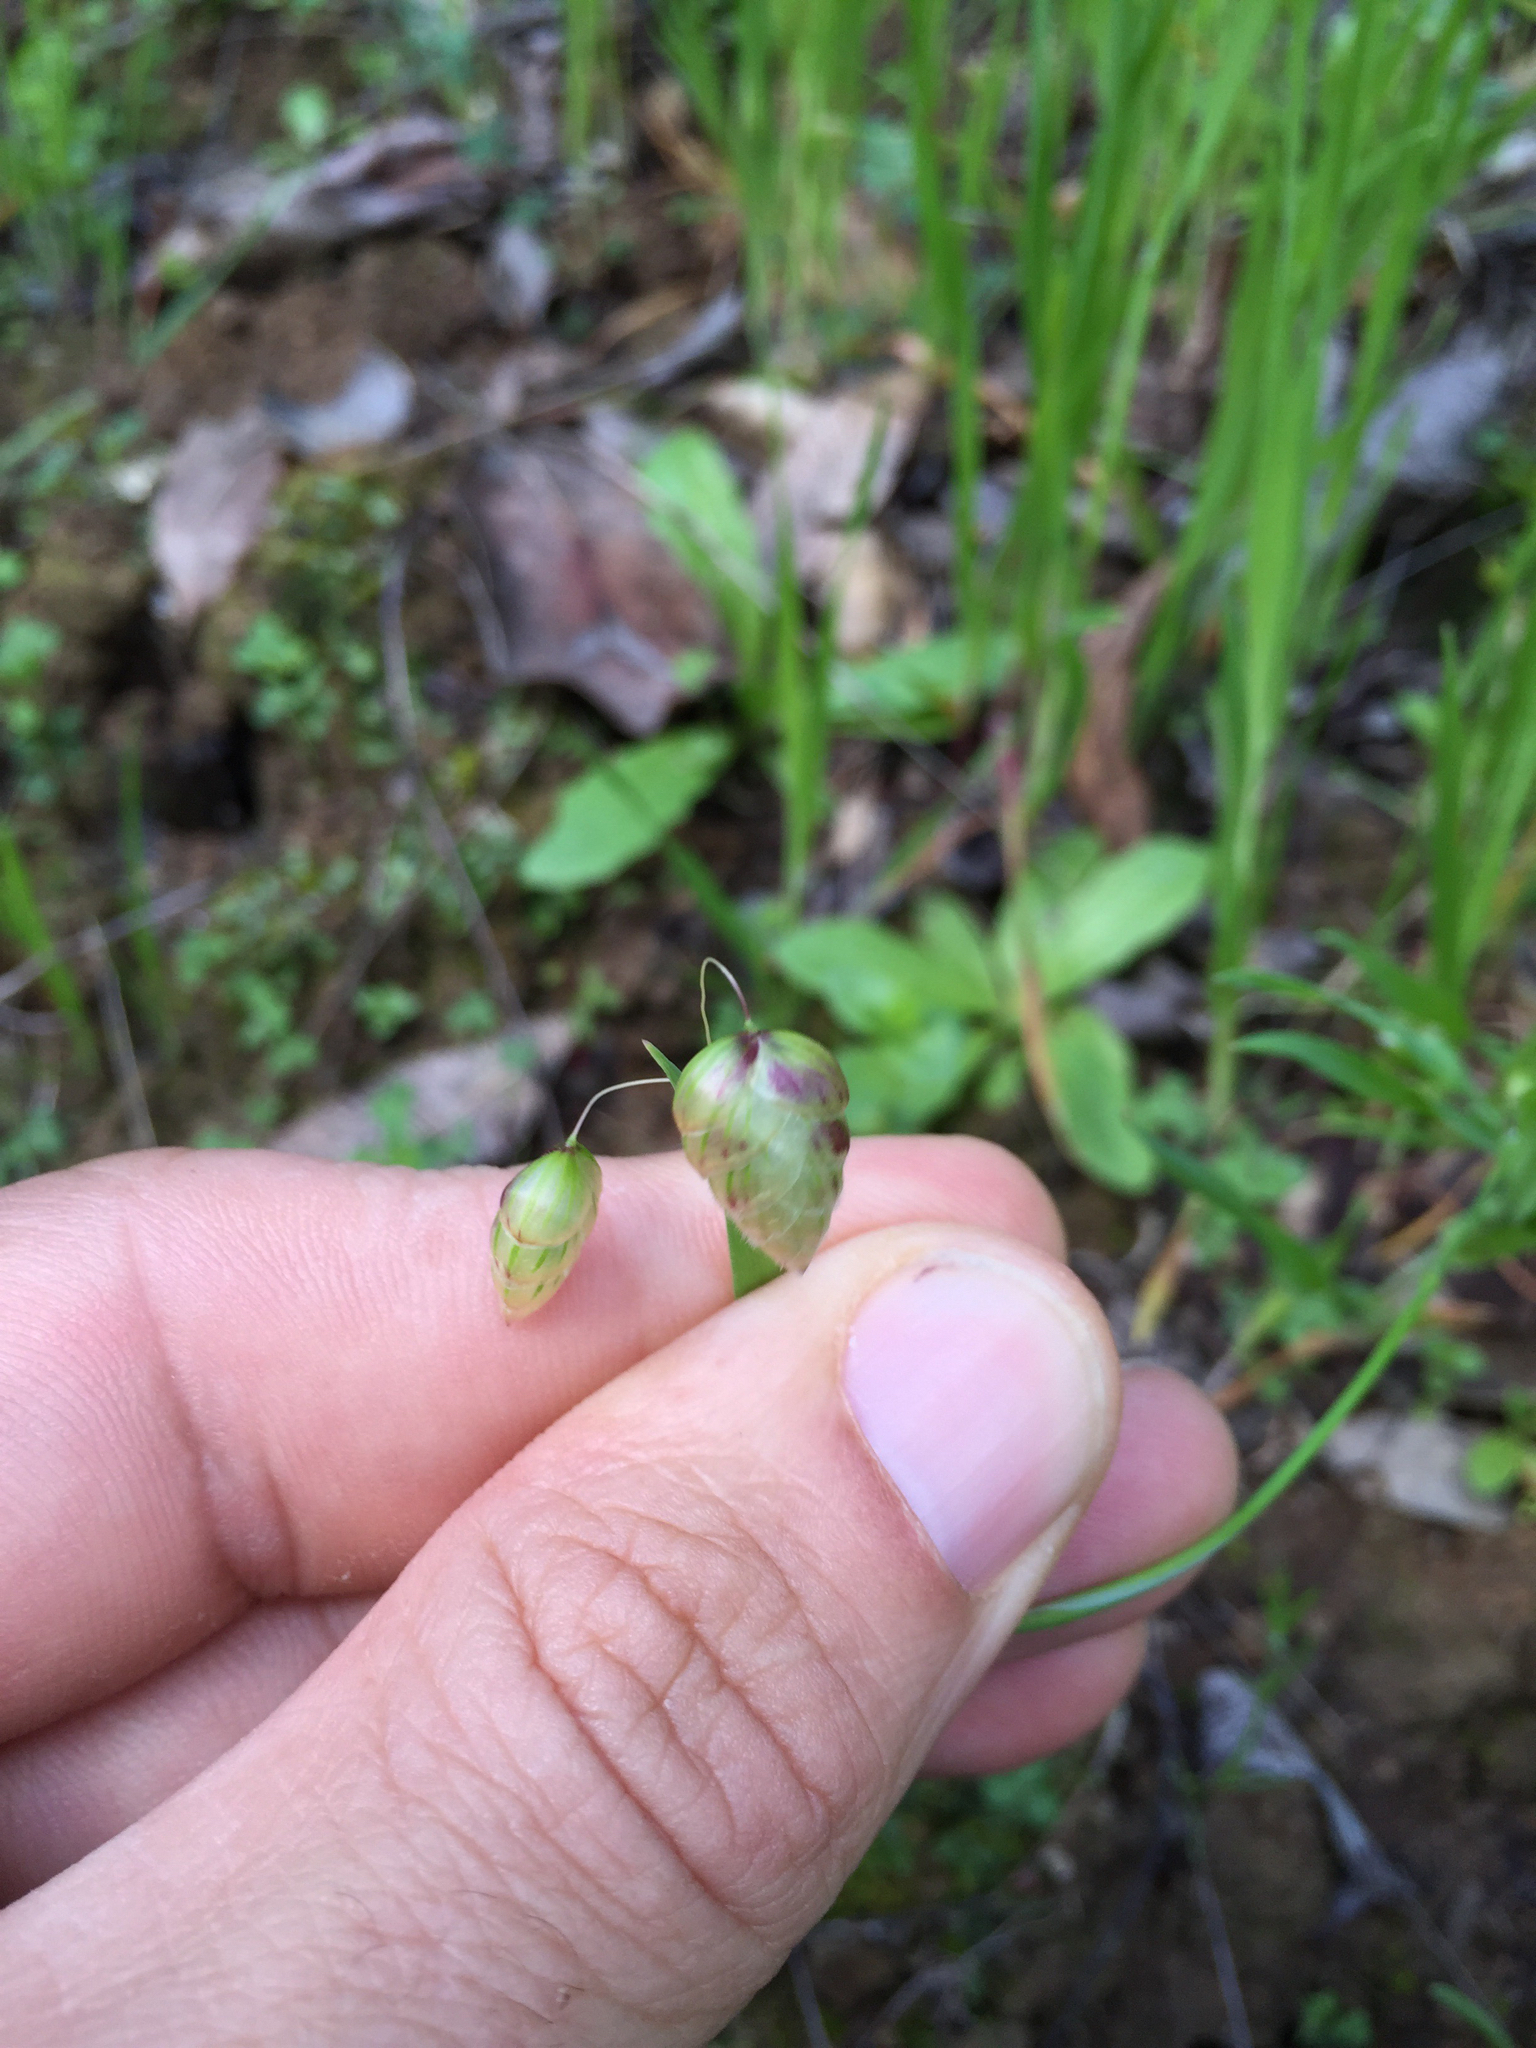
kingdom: Plantae
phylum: Tracheophyta
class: Liliopsida
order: Poales
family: Poaceae
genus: Briza
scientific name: Briza maxima
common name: Big quakinggrass
